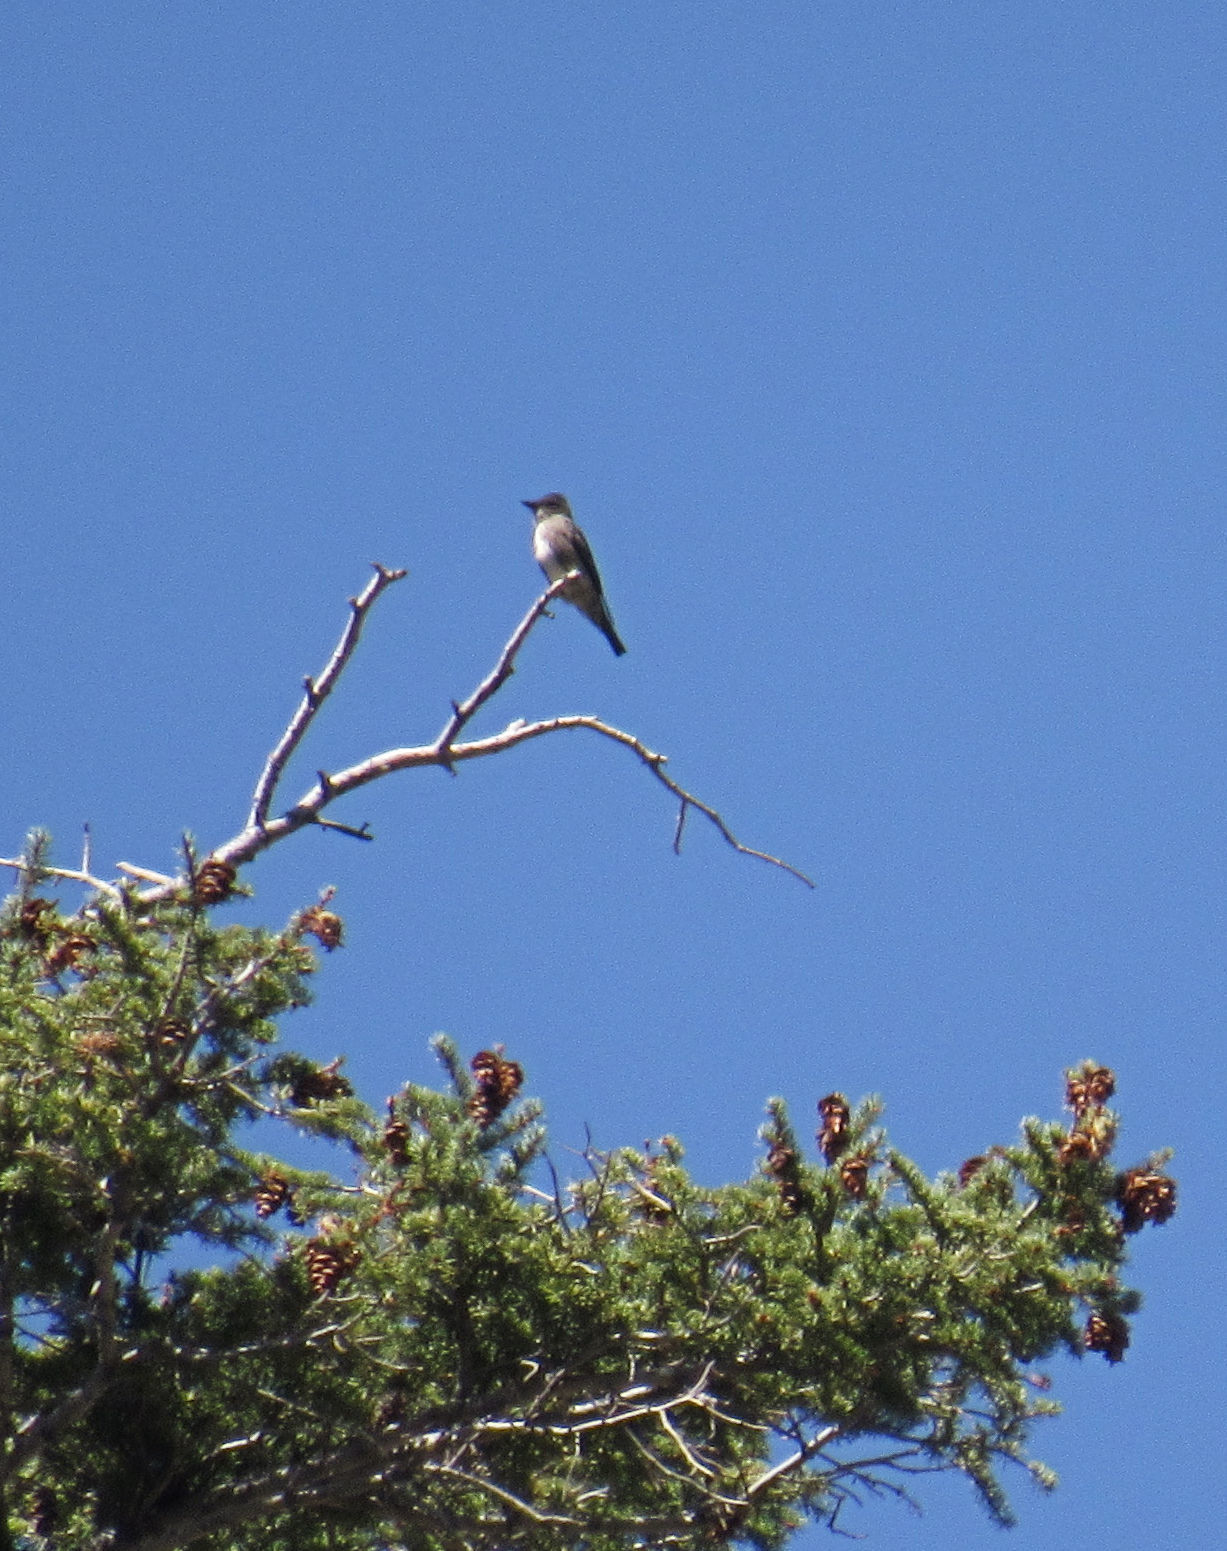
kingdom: Animalia
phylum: Chordata
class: Aves
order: Passeriformes
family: Tyrannidae
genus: Contopus
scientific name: Contopus cooperi
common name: Olive-sided flycatcher
